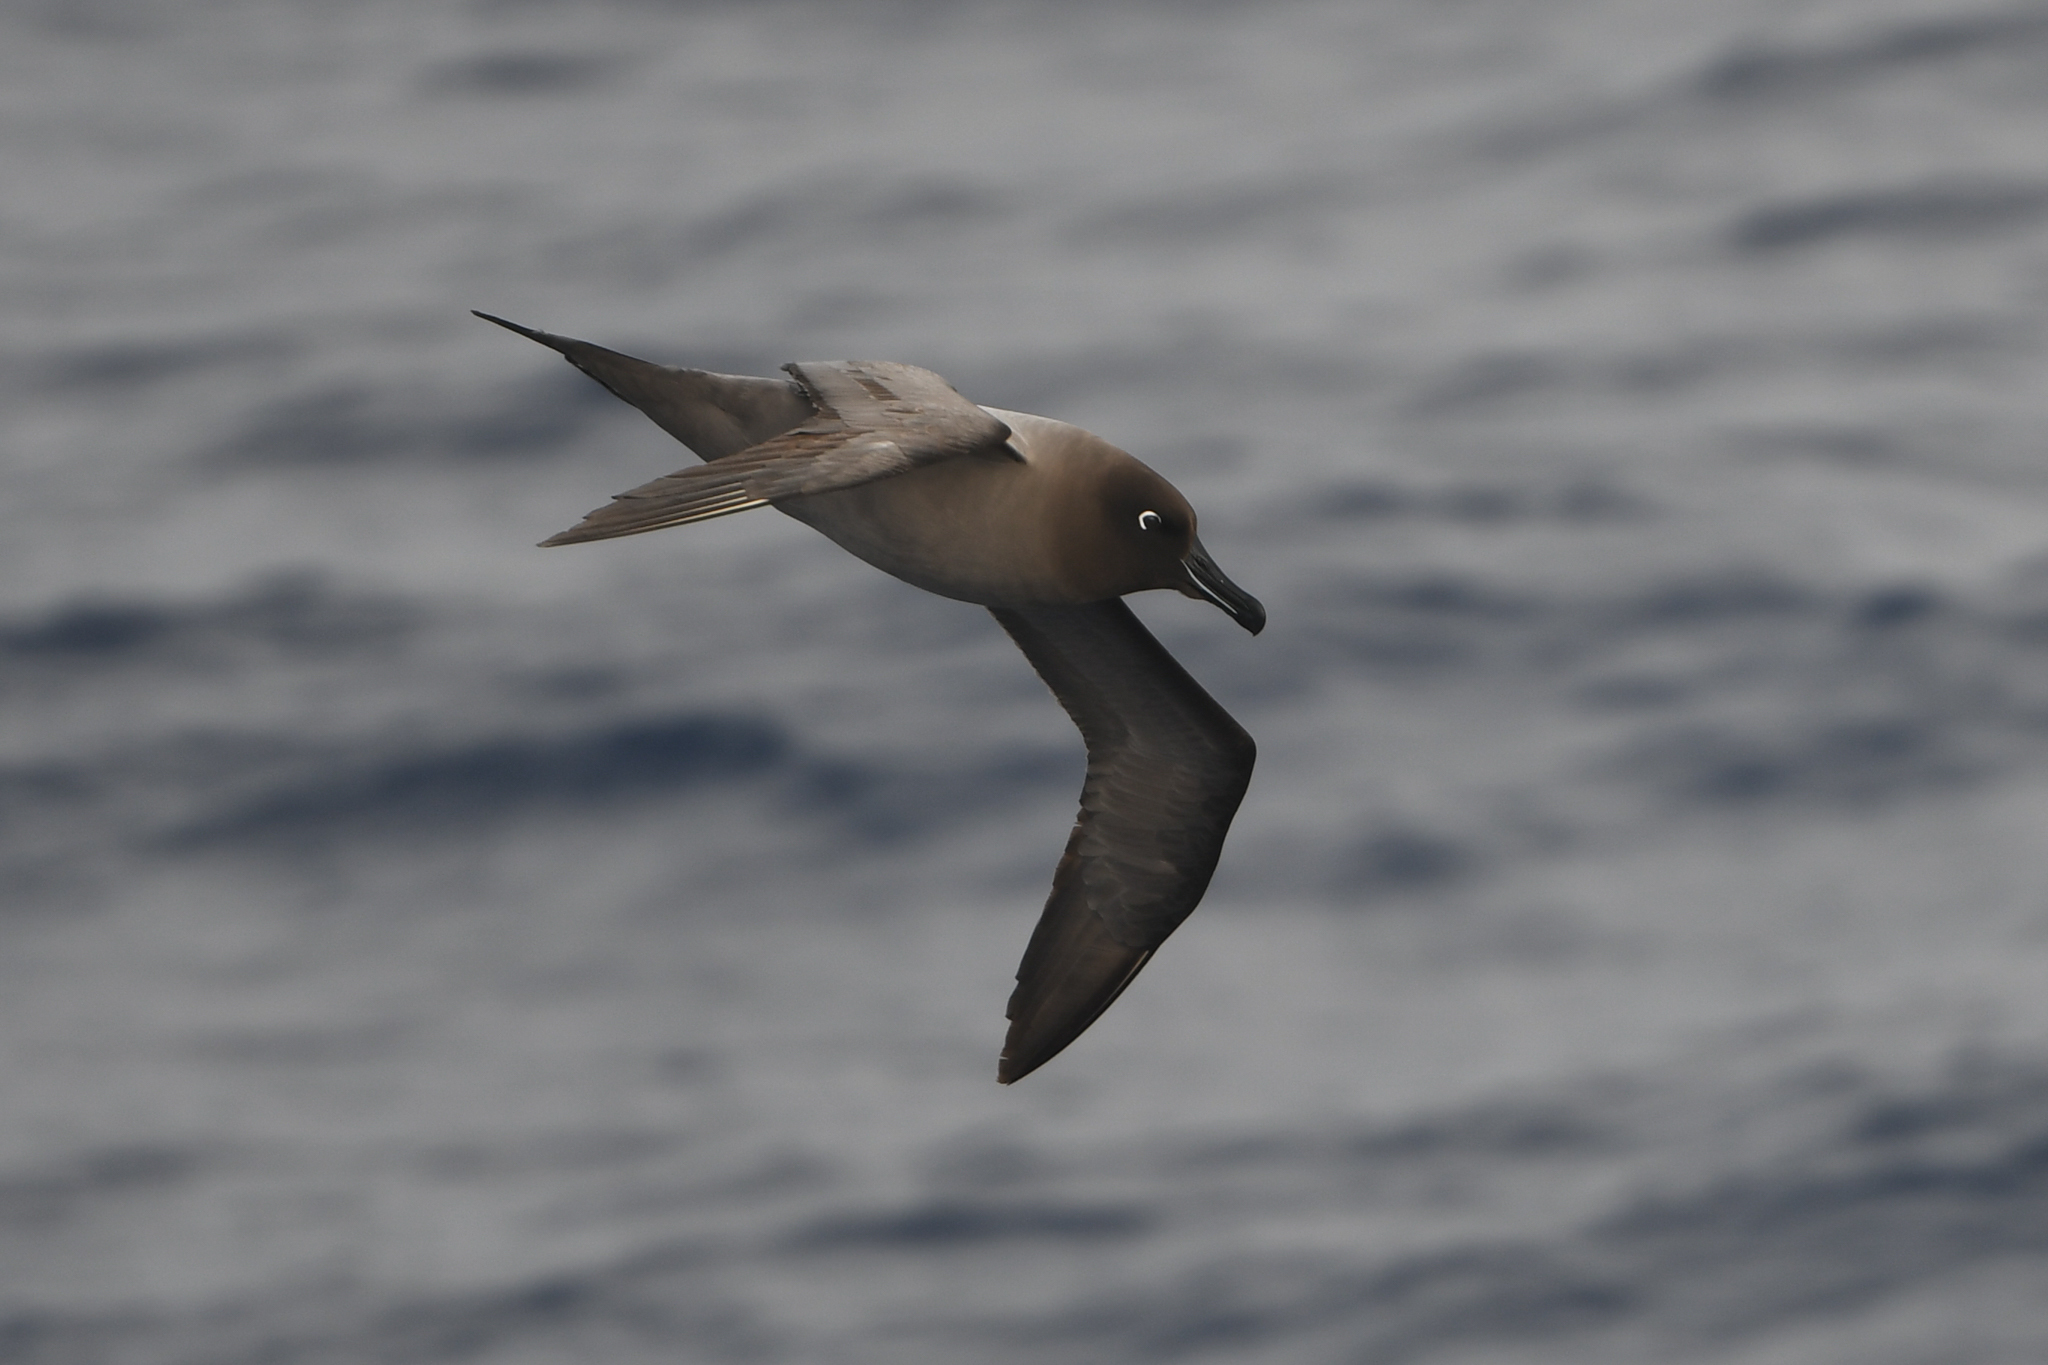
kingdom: Animalia
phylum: Chordata
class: Aves
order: Procellariiformes
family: Diomedeidae
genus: Phoebetria
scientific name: Phoebetria palpebrata
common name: Light-mantled albatross
